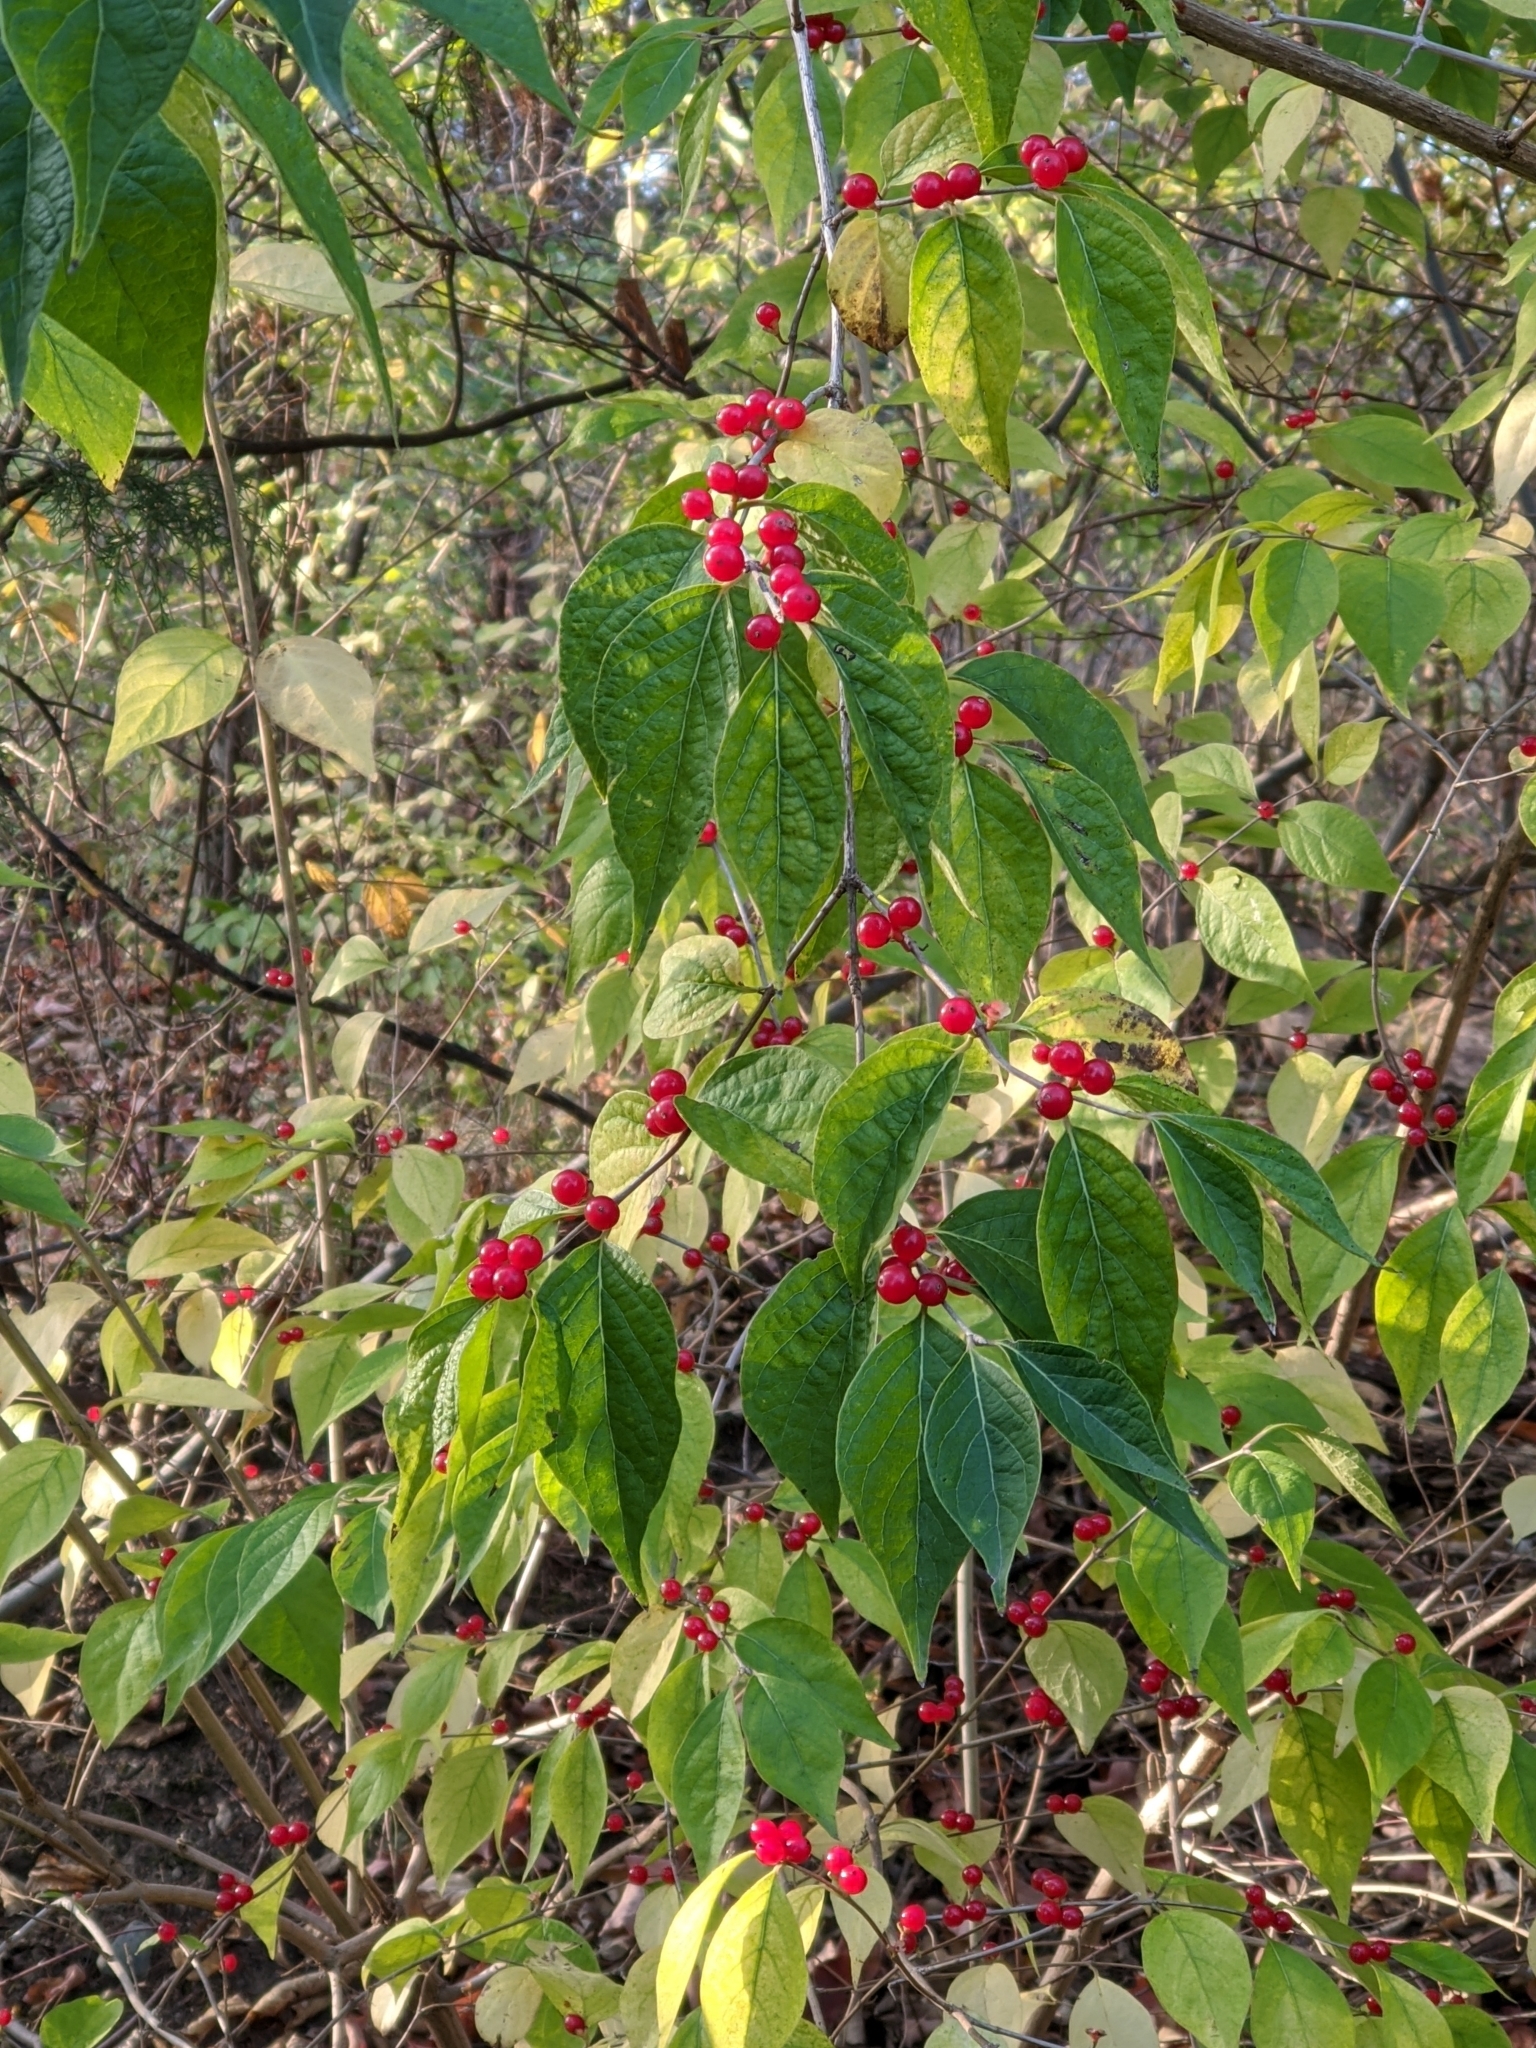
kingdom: Plantae
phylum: Tracheophyta
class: Magnoliopsida
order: Dipsacales
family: Caprifoliaceae
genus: Lonicera
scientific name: Lonicera maackii
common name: Amur honeysuckle
